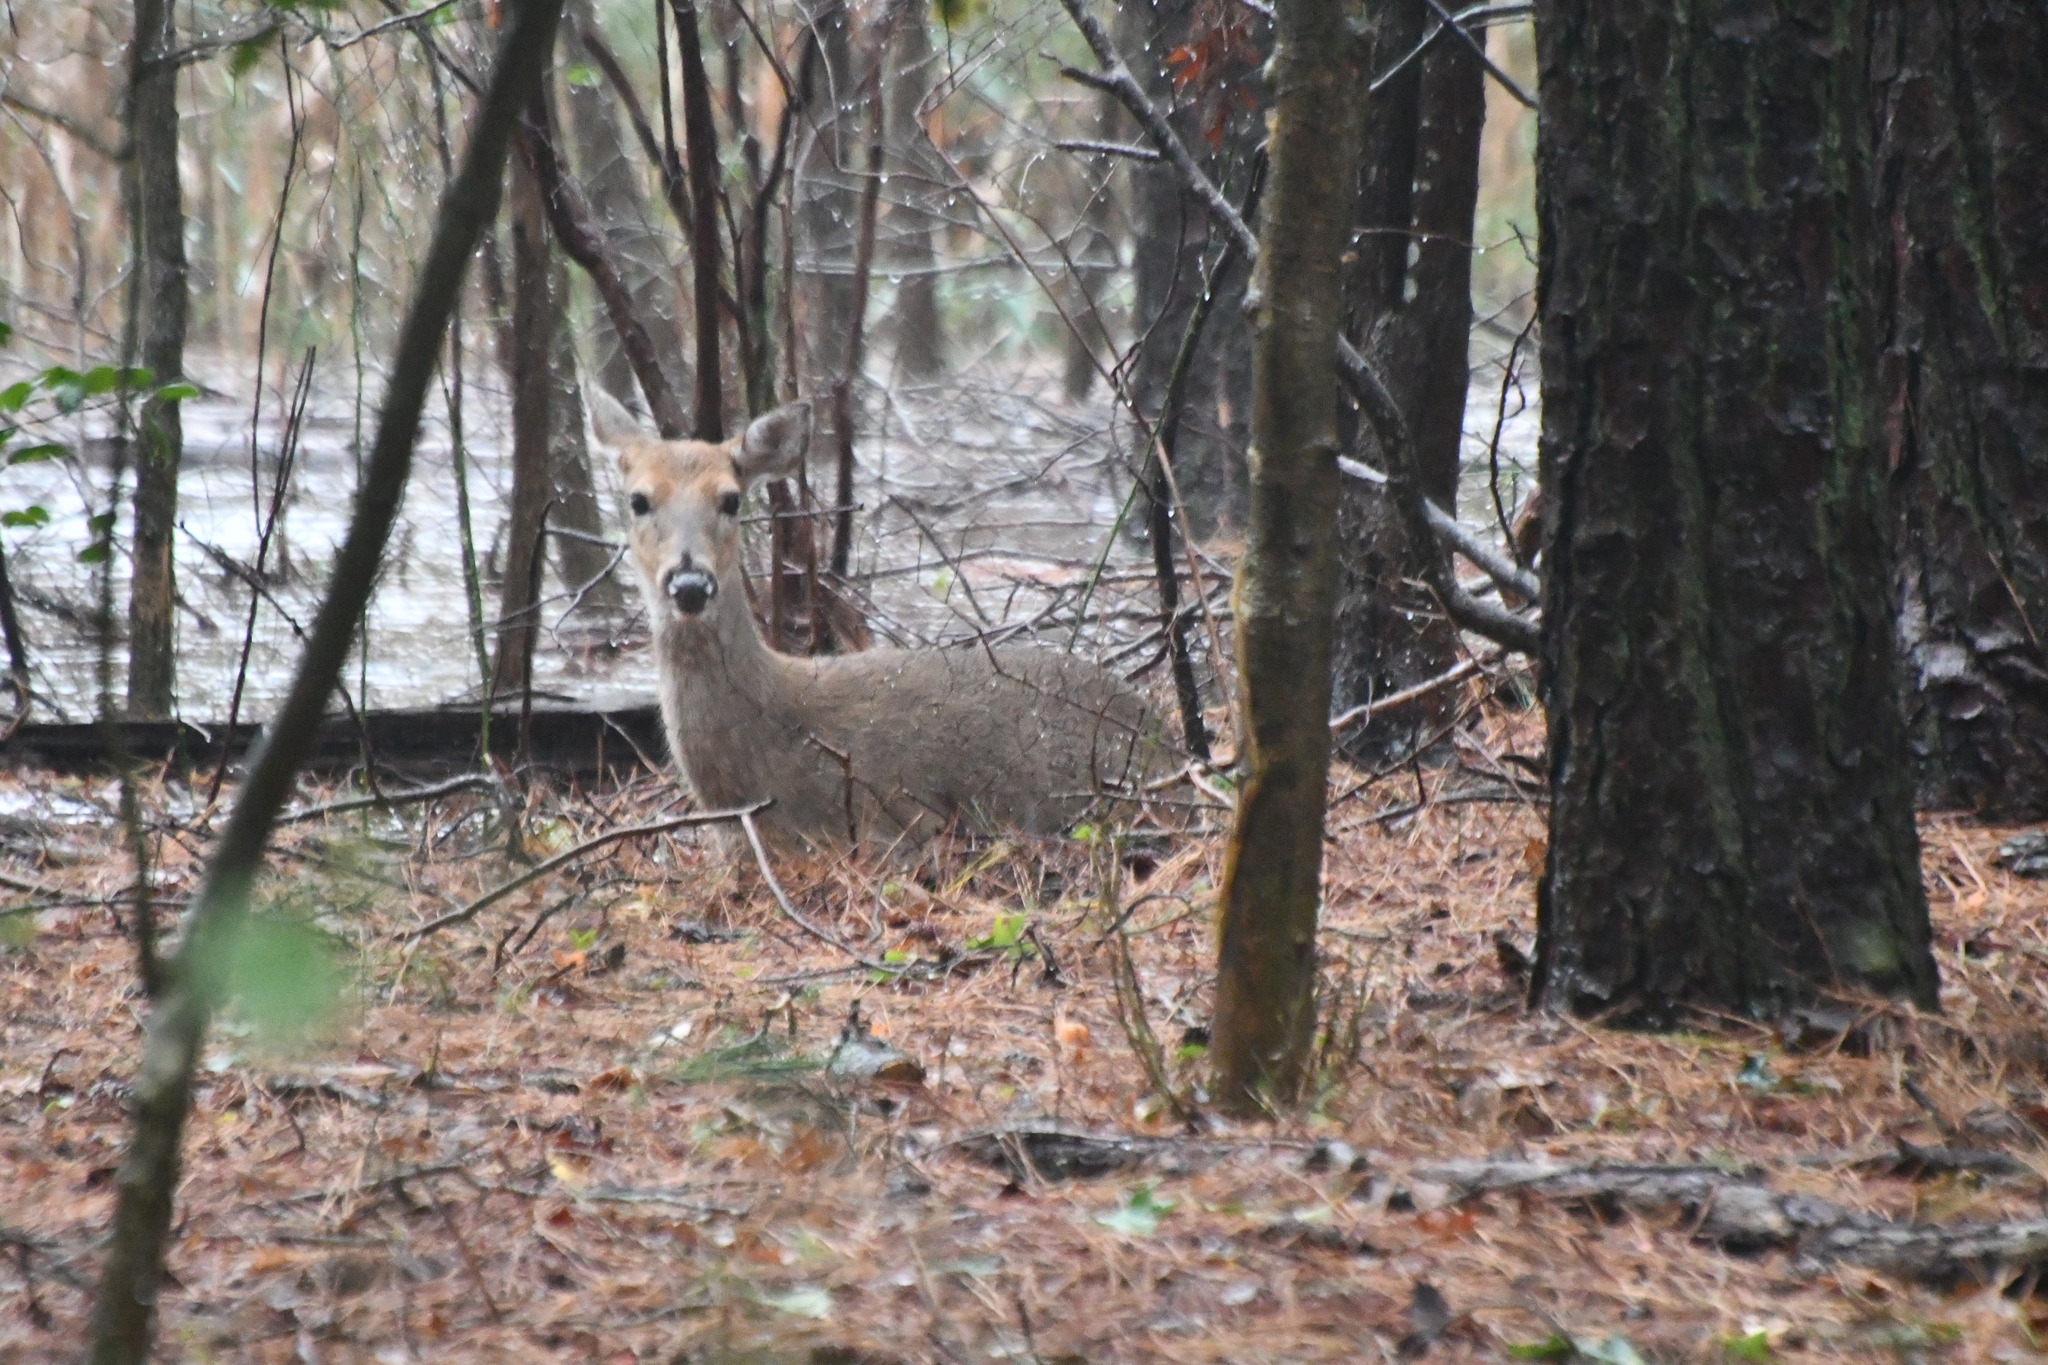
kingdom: Animalia
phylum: Chordata
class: Mammalia
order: Artiodactyla
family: Cervidae
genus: Odocoileus
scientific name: Odocoileus virginianus
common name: White-tailed deer
